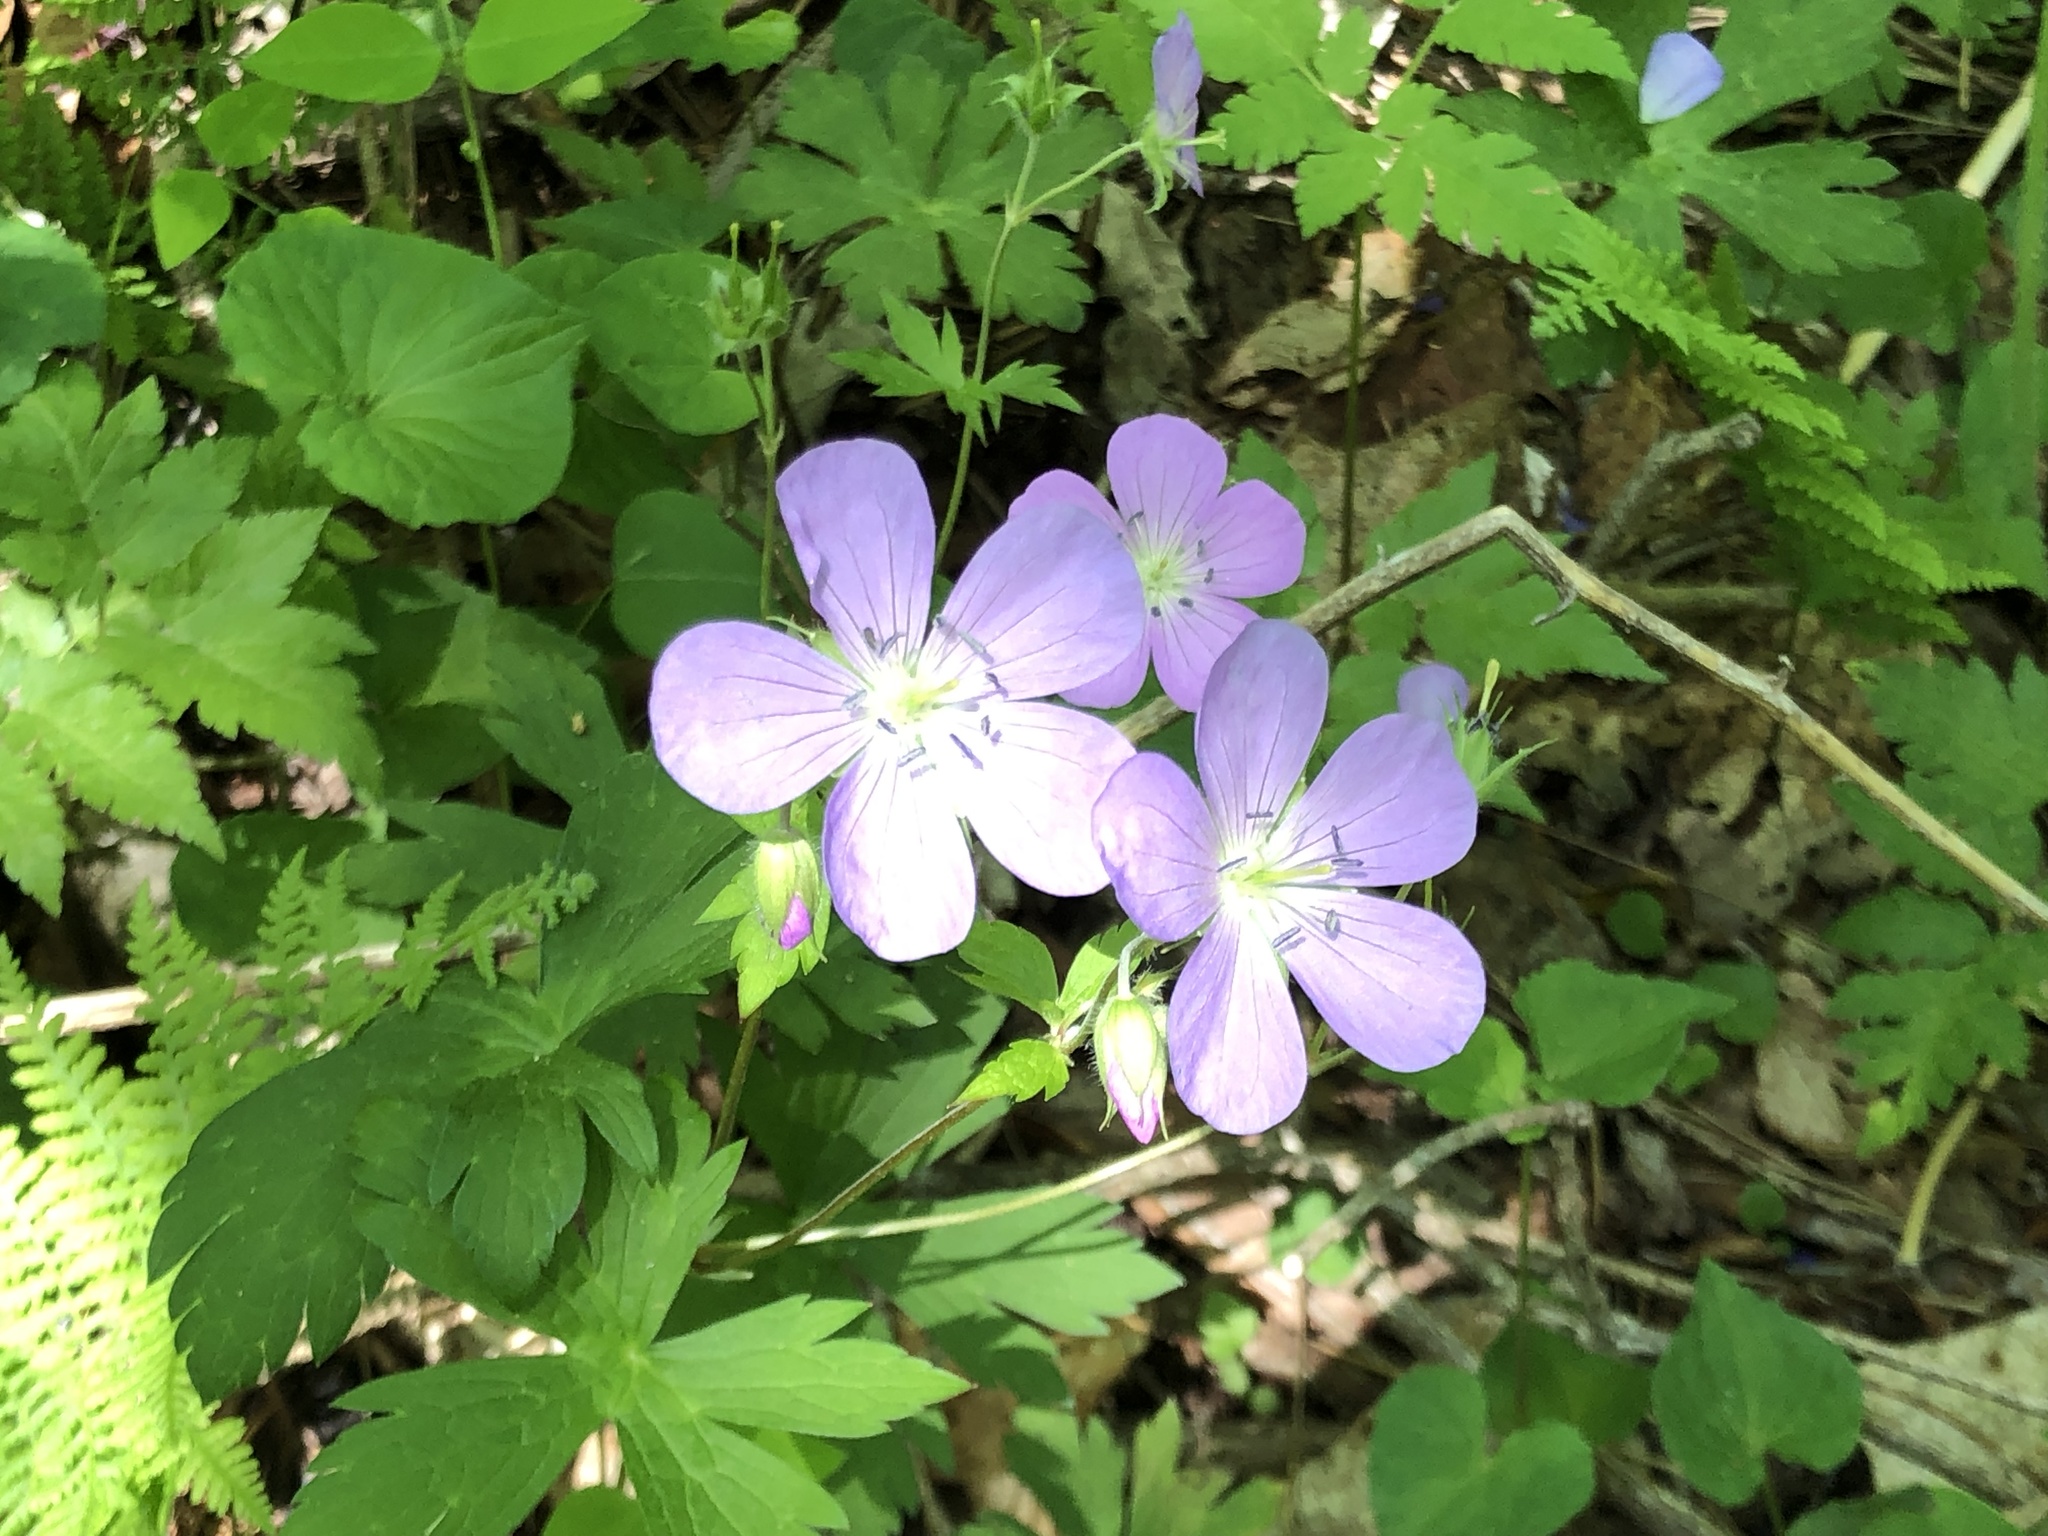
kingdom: Plantae
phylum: Tracheophyta
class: Magnoliopsida
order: Geraniales
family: Geraniaceae
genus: Geranium
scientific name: Geranium maculatum
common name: Spotted geranium
